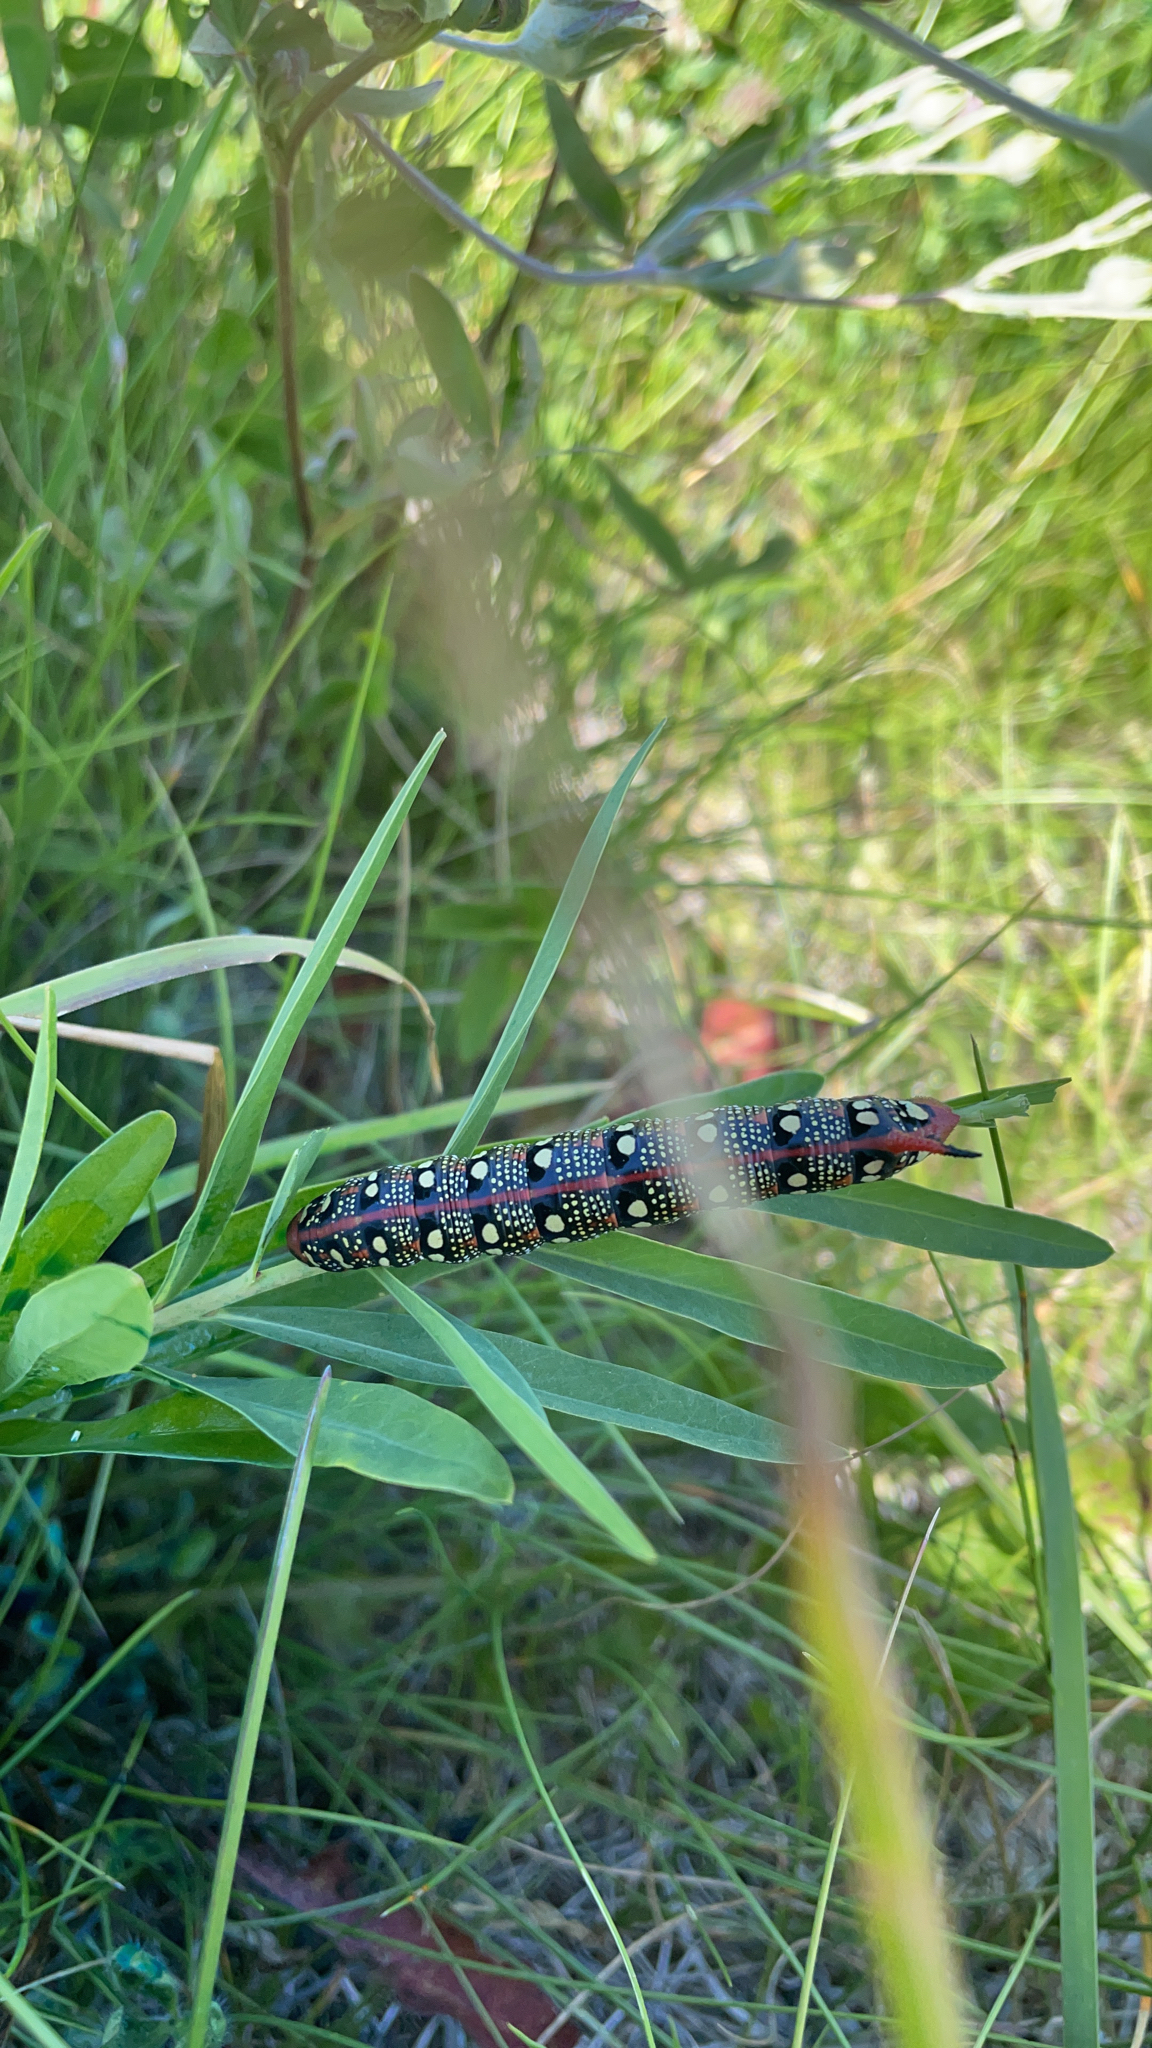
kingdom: Animalia
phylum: Arthropoda
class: Insecta
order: Lepidoptera
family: Sphingidae
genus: Hyles
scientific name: Hyles euphorbiae
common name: Spurge hawk-moth
